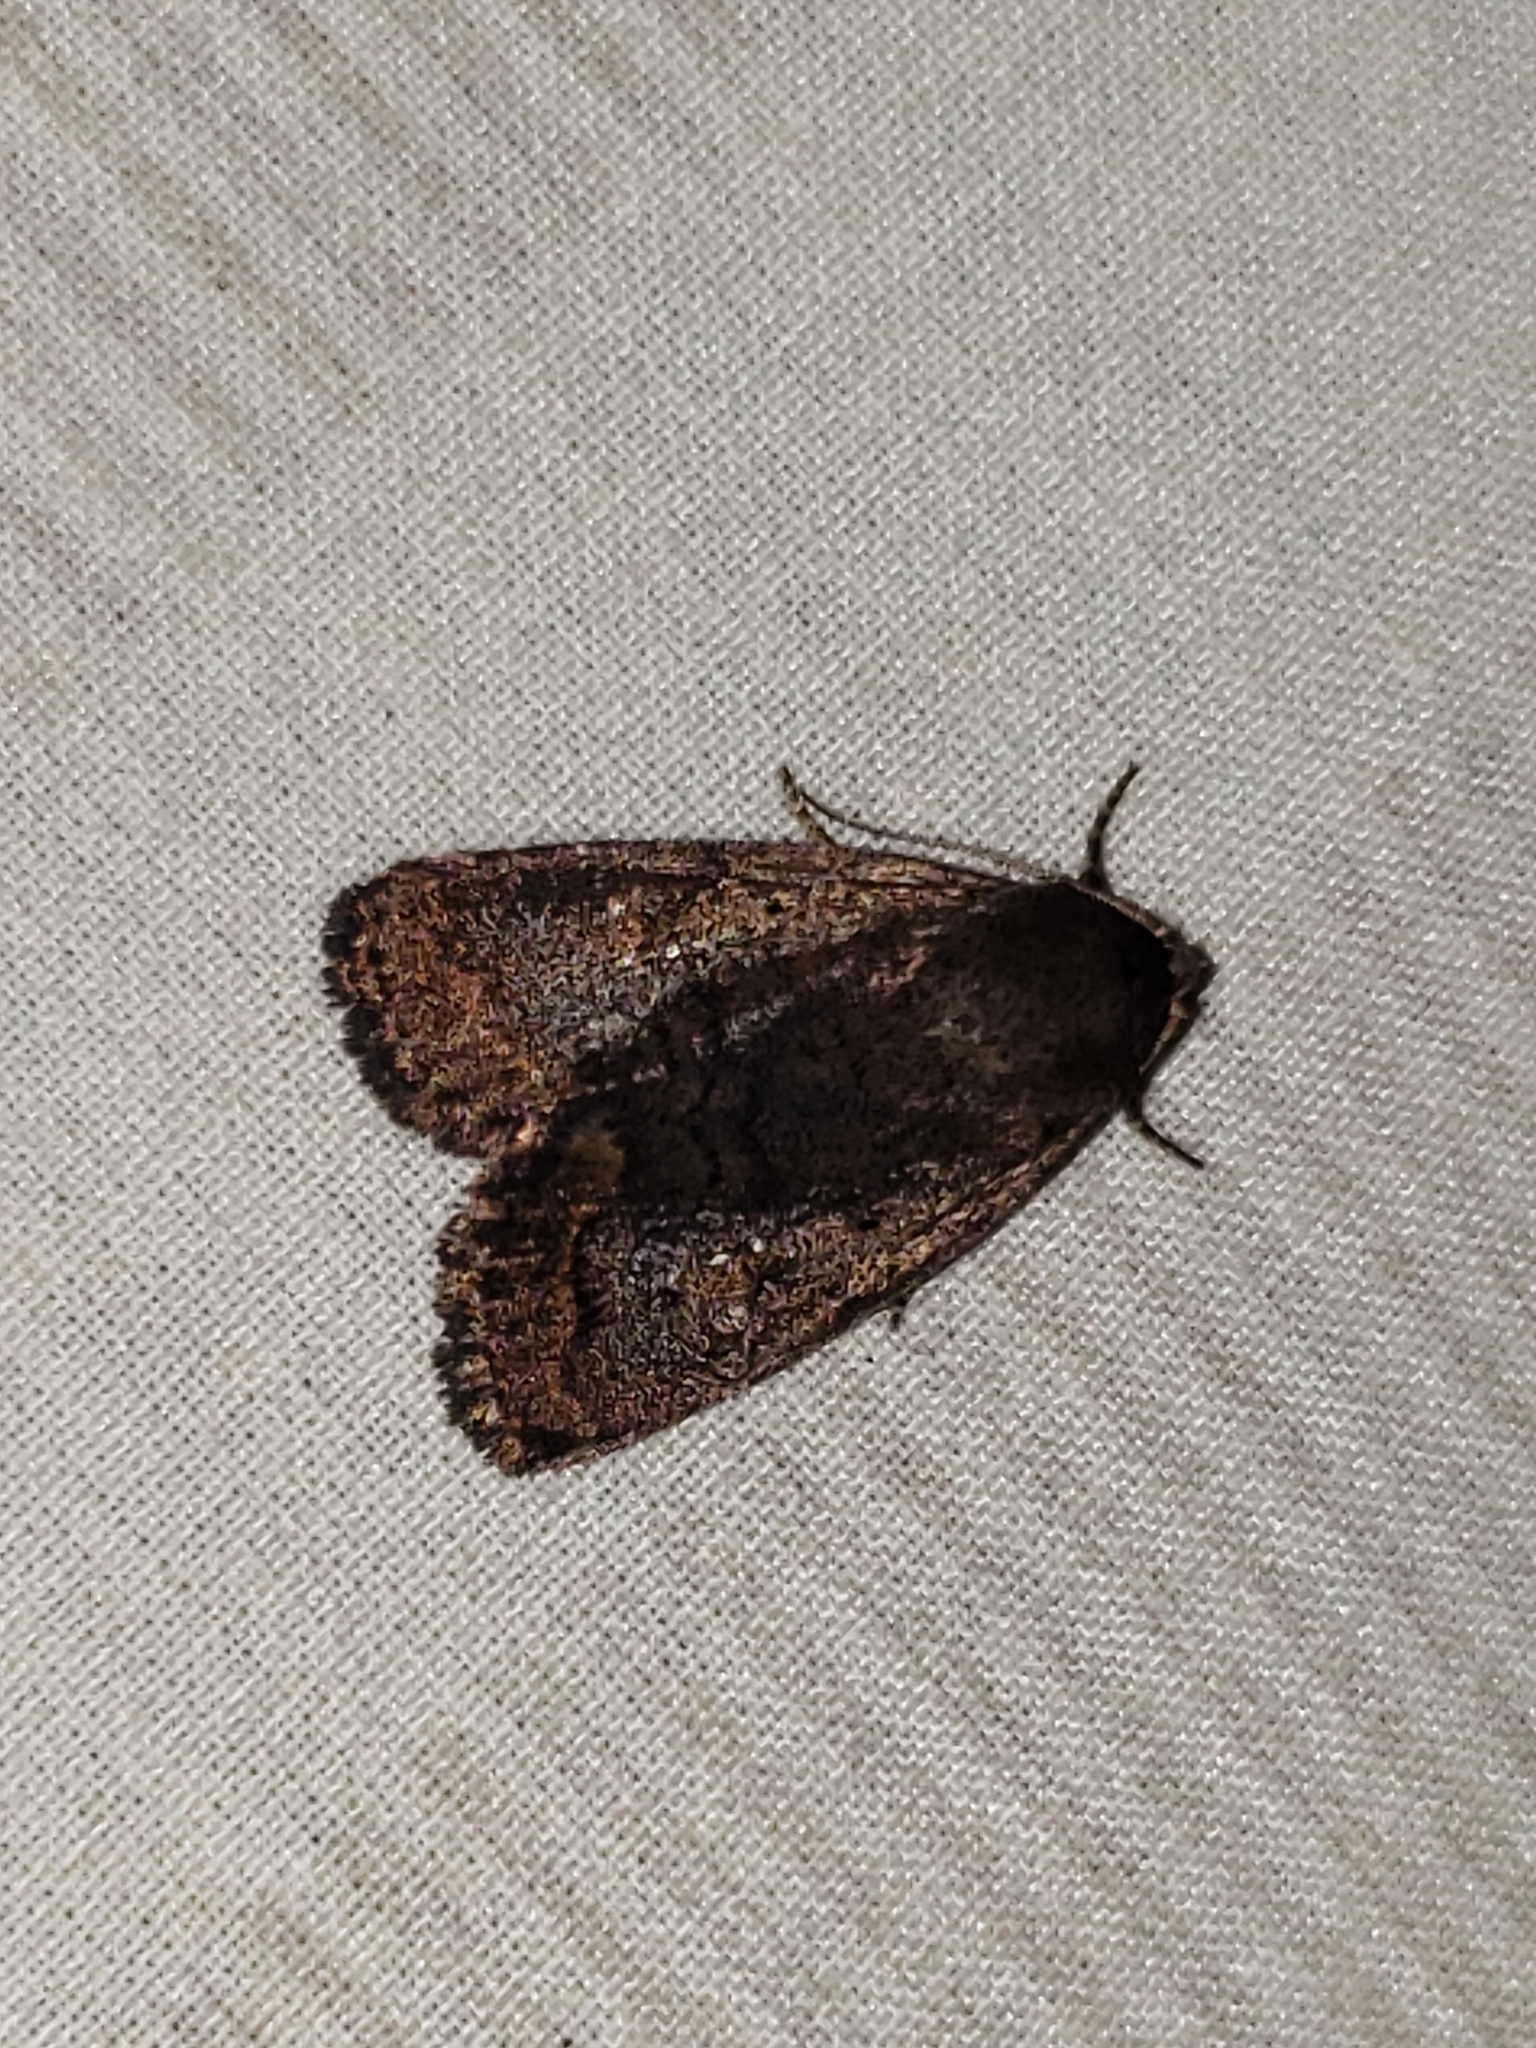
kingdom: Animalia
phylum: Arthropoda
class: Insecta
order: Lepidoptera
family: Noctuidae
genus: Athetis
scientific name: Athetis tarda
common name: Slowpoke moth
